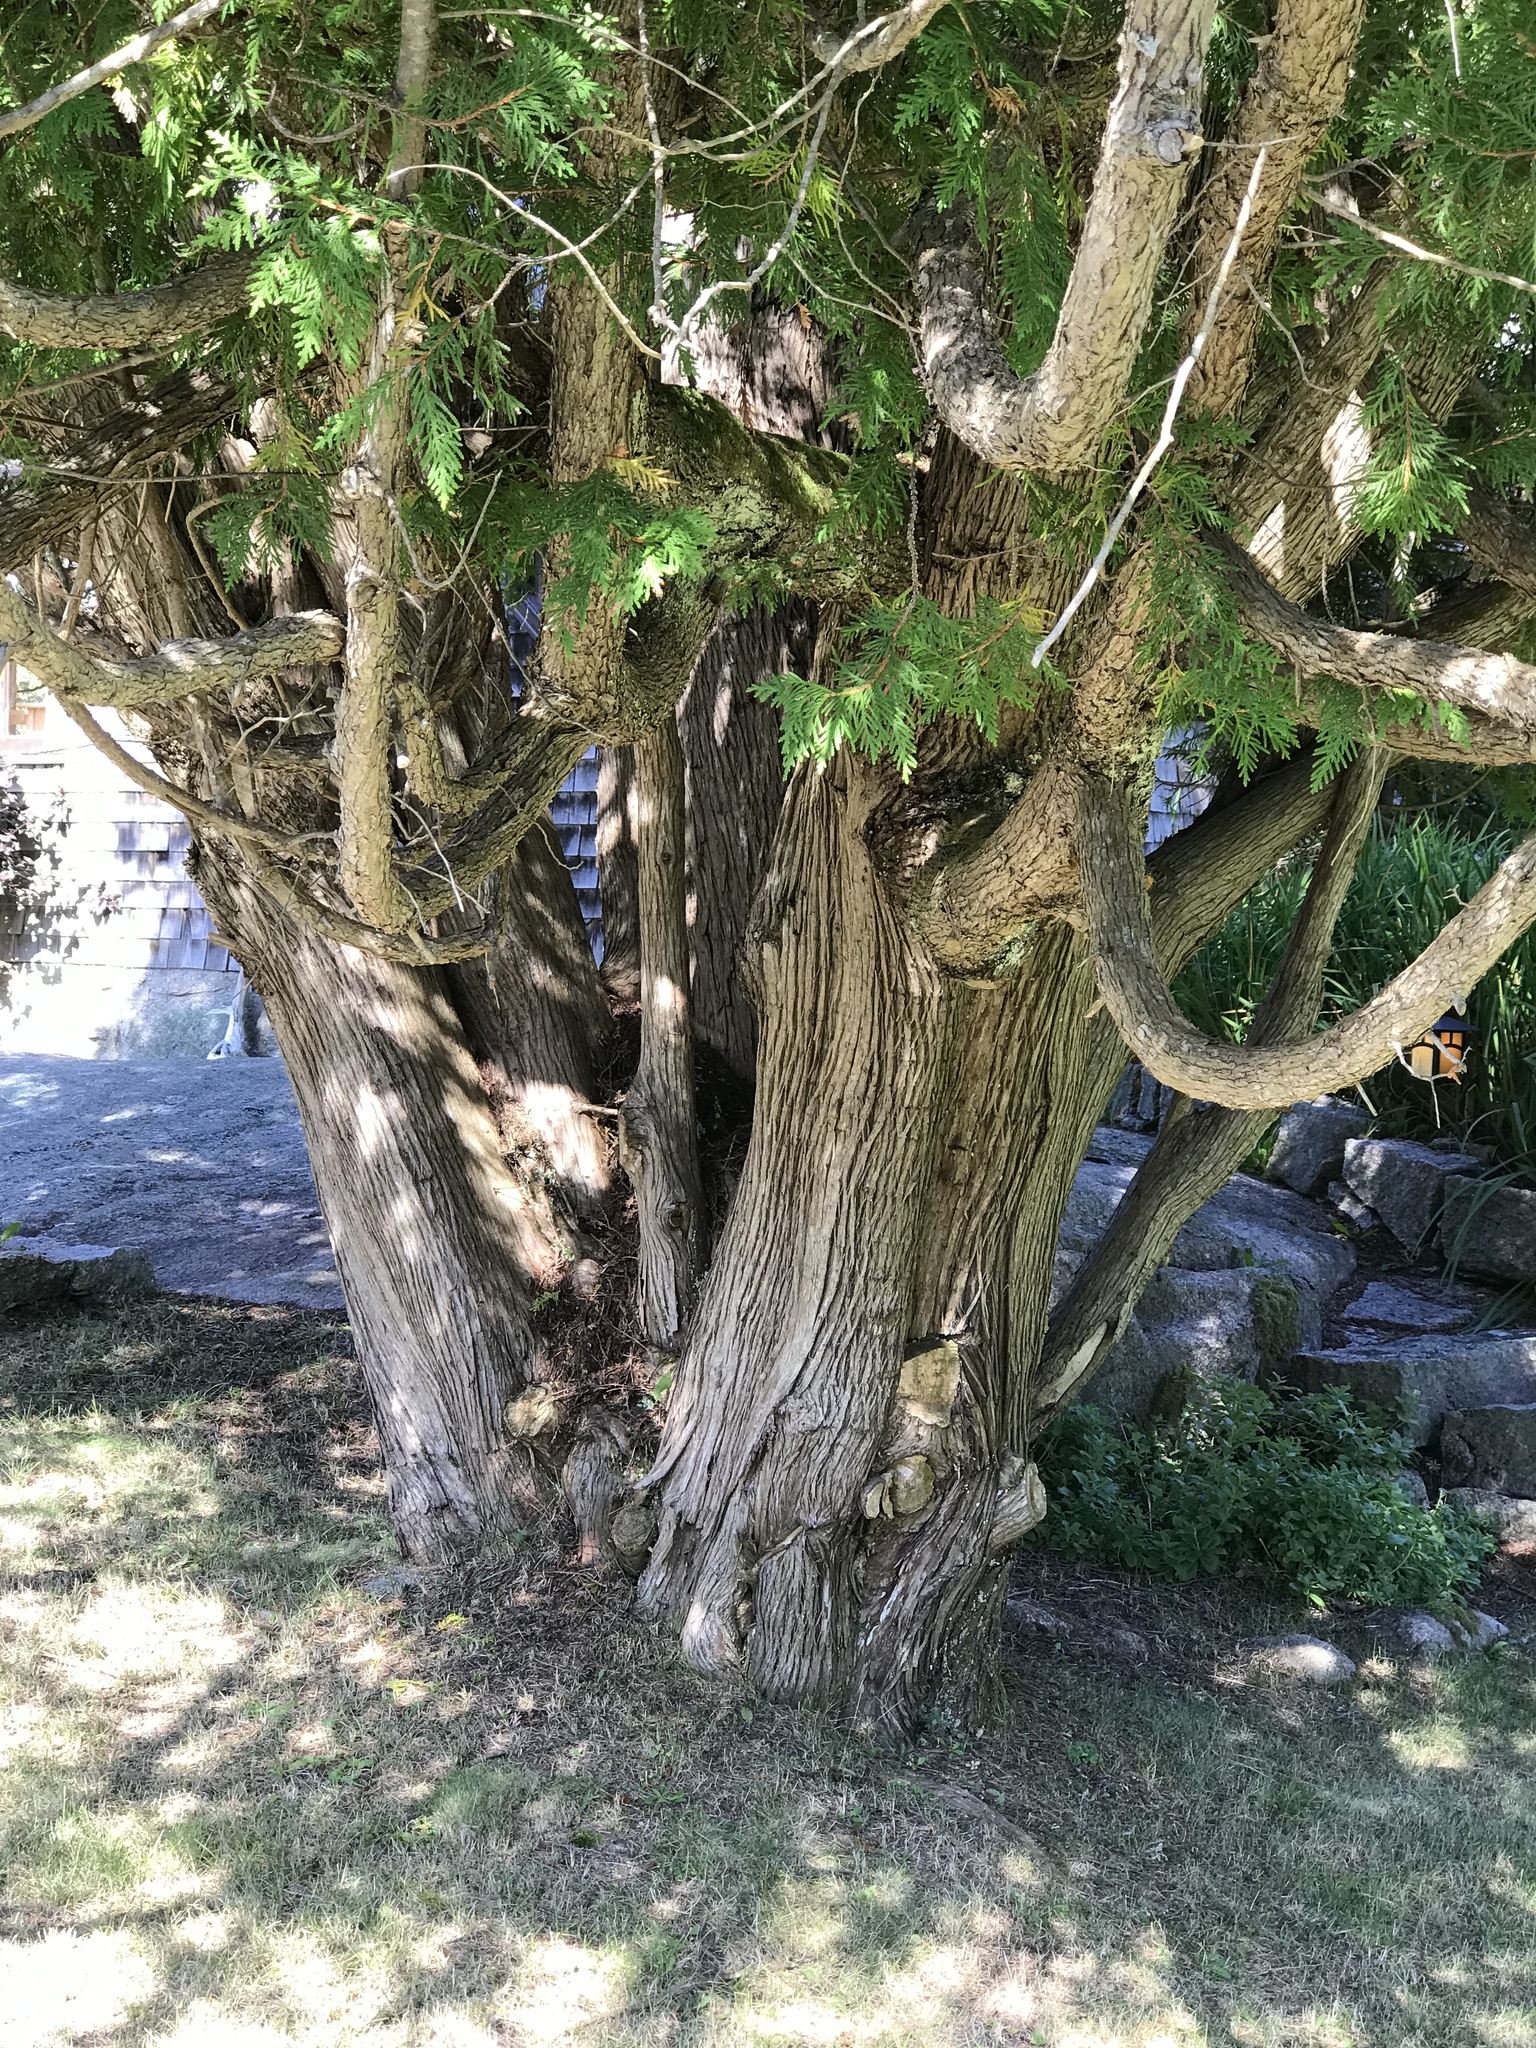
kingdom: Plantae
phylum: Tracheophyta
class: Pinopsida
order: Pinales
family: Cupressaceae
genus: Thuja
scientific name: Thuja occidentalis
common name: Northern white-cedar
